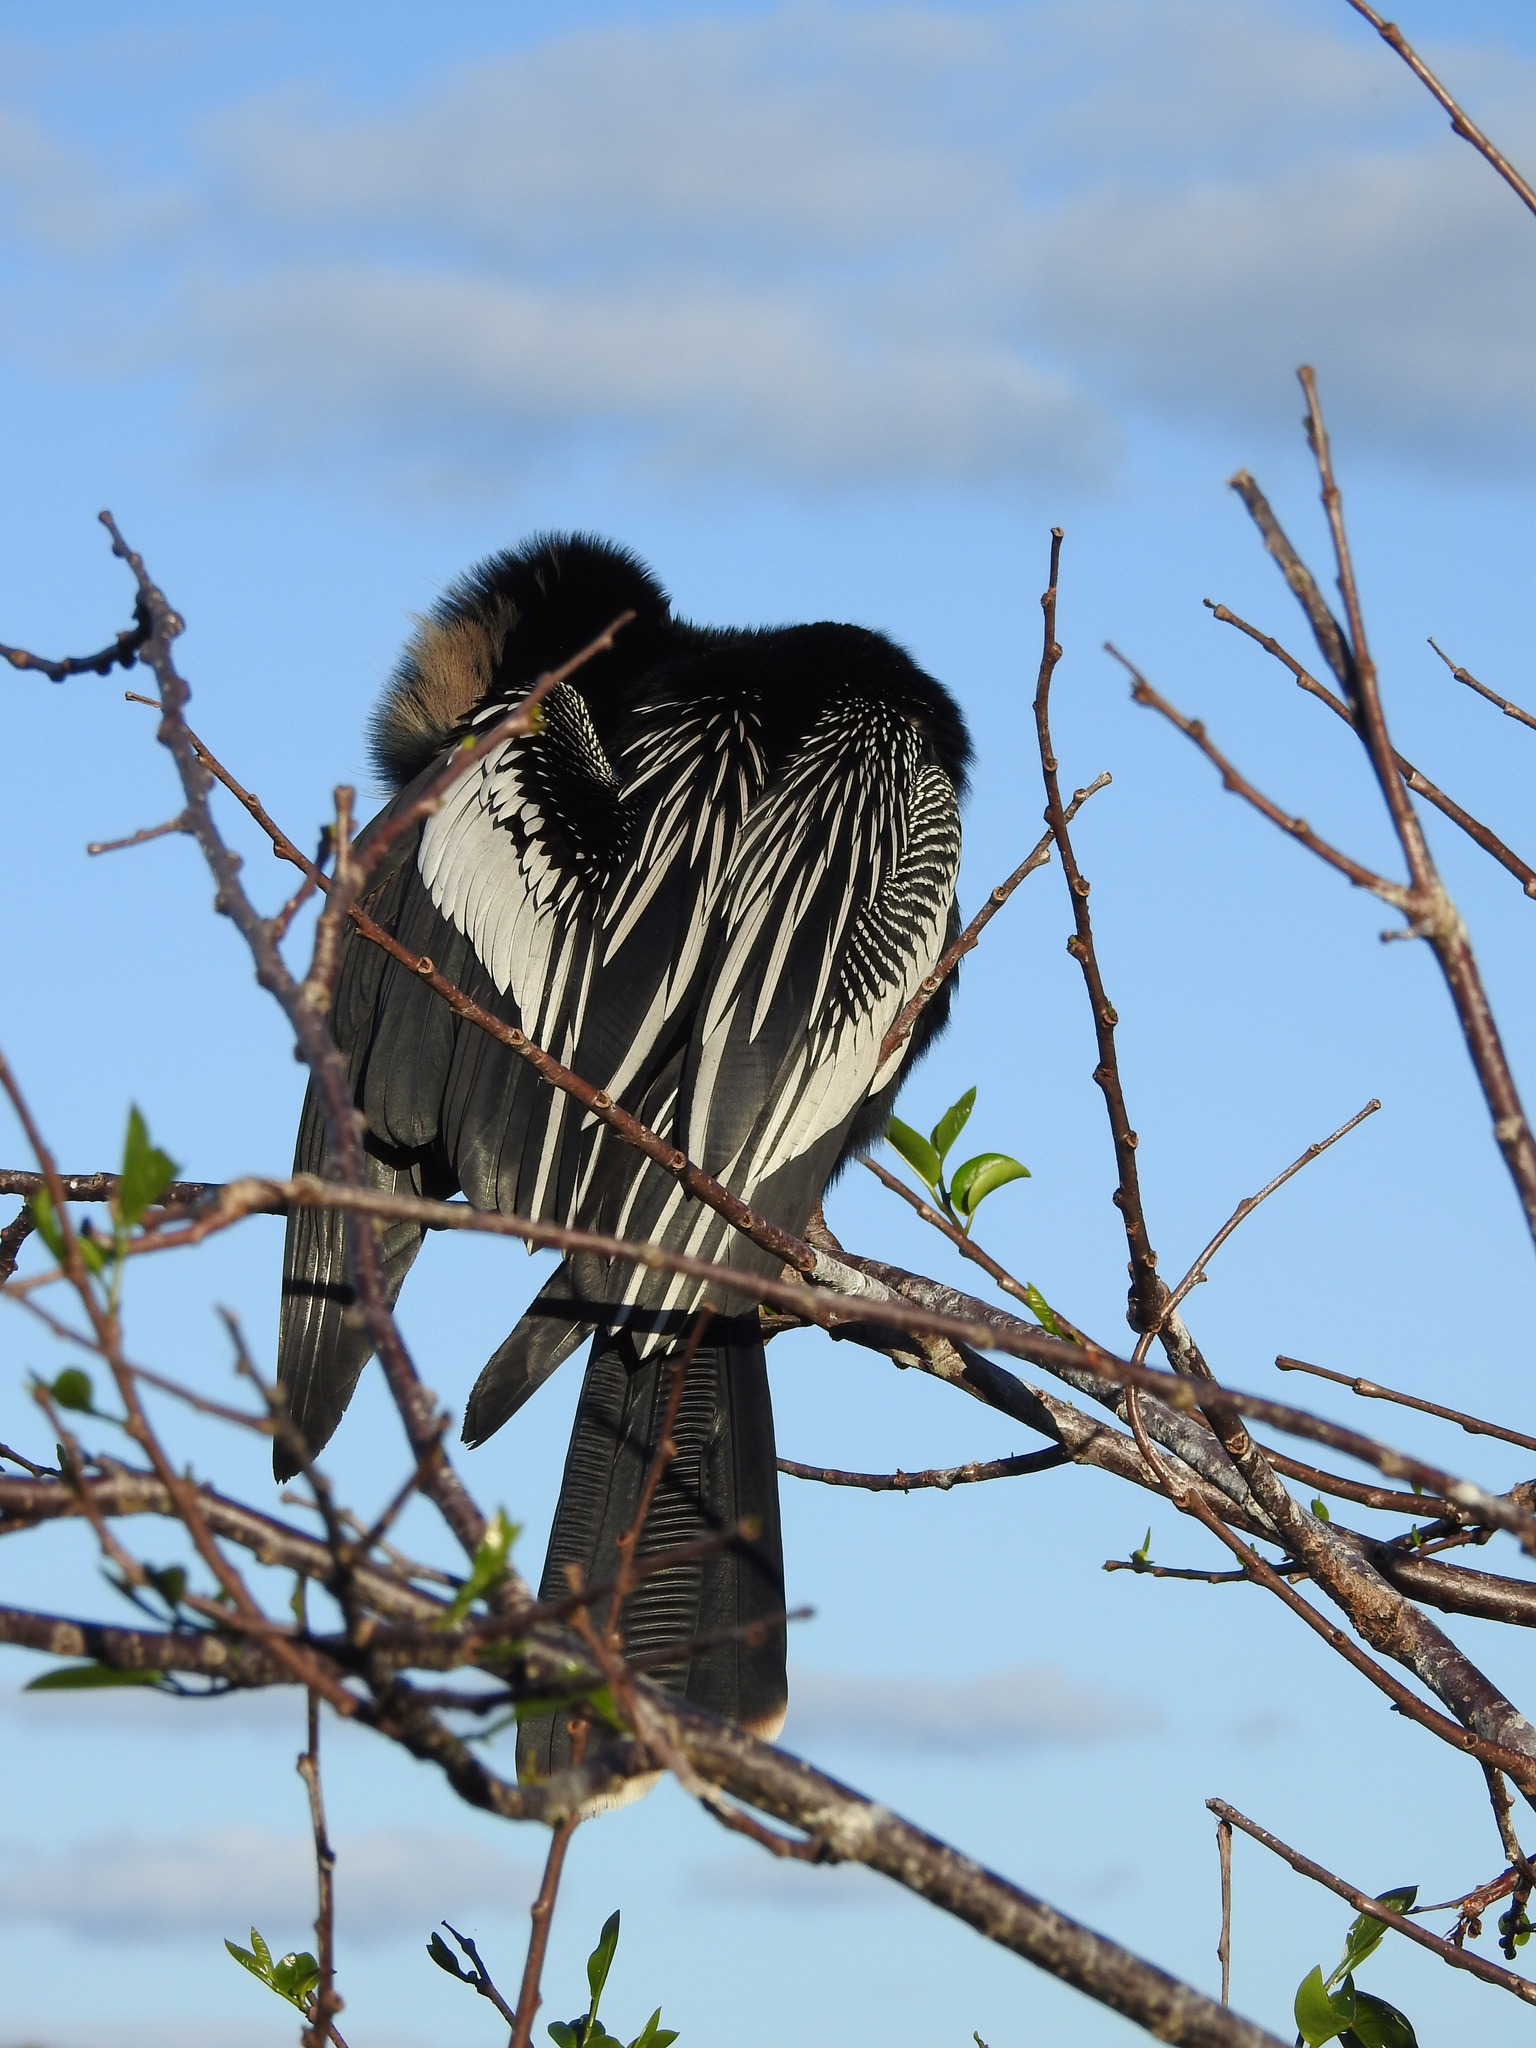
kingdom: Animalia
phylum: Chordata
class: Aves
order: Suliformes
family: Anhingidae
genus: Anhinga
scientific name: Anhinga anhinga
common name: Anhinga
